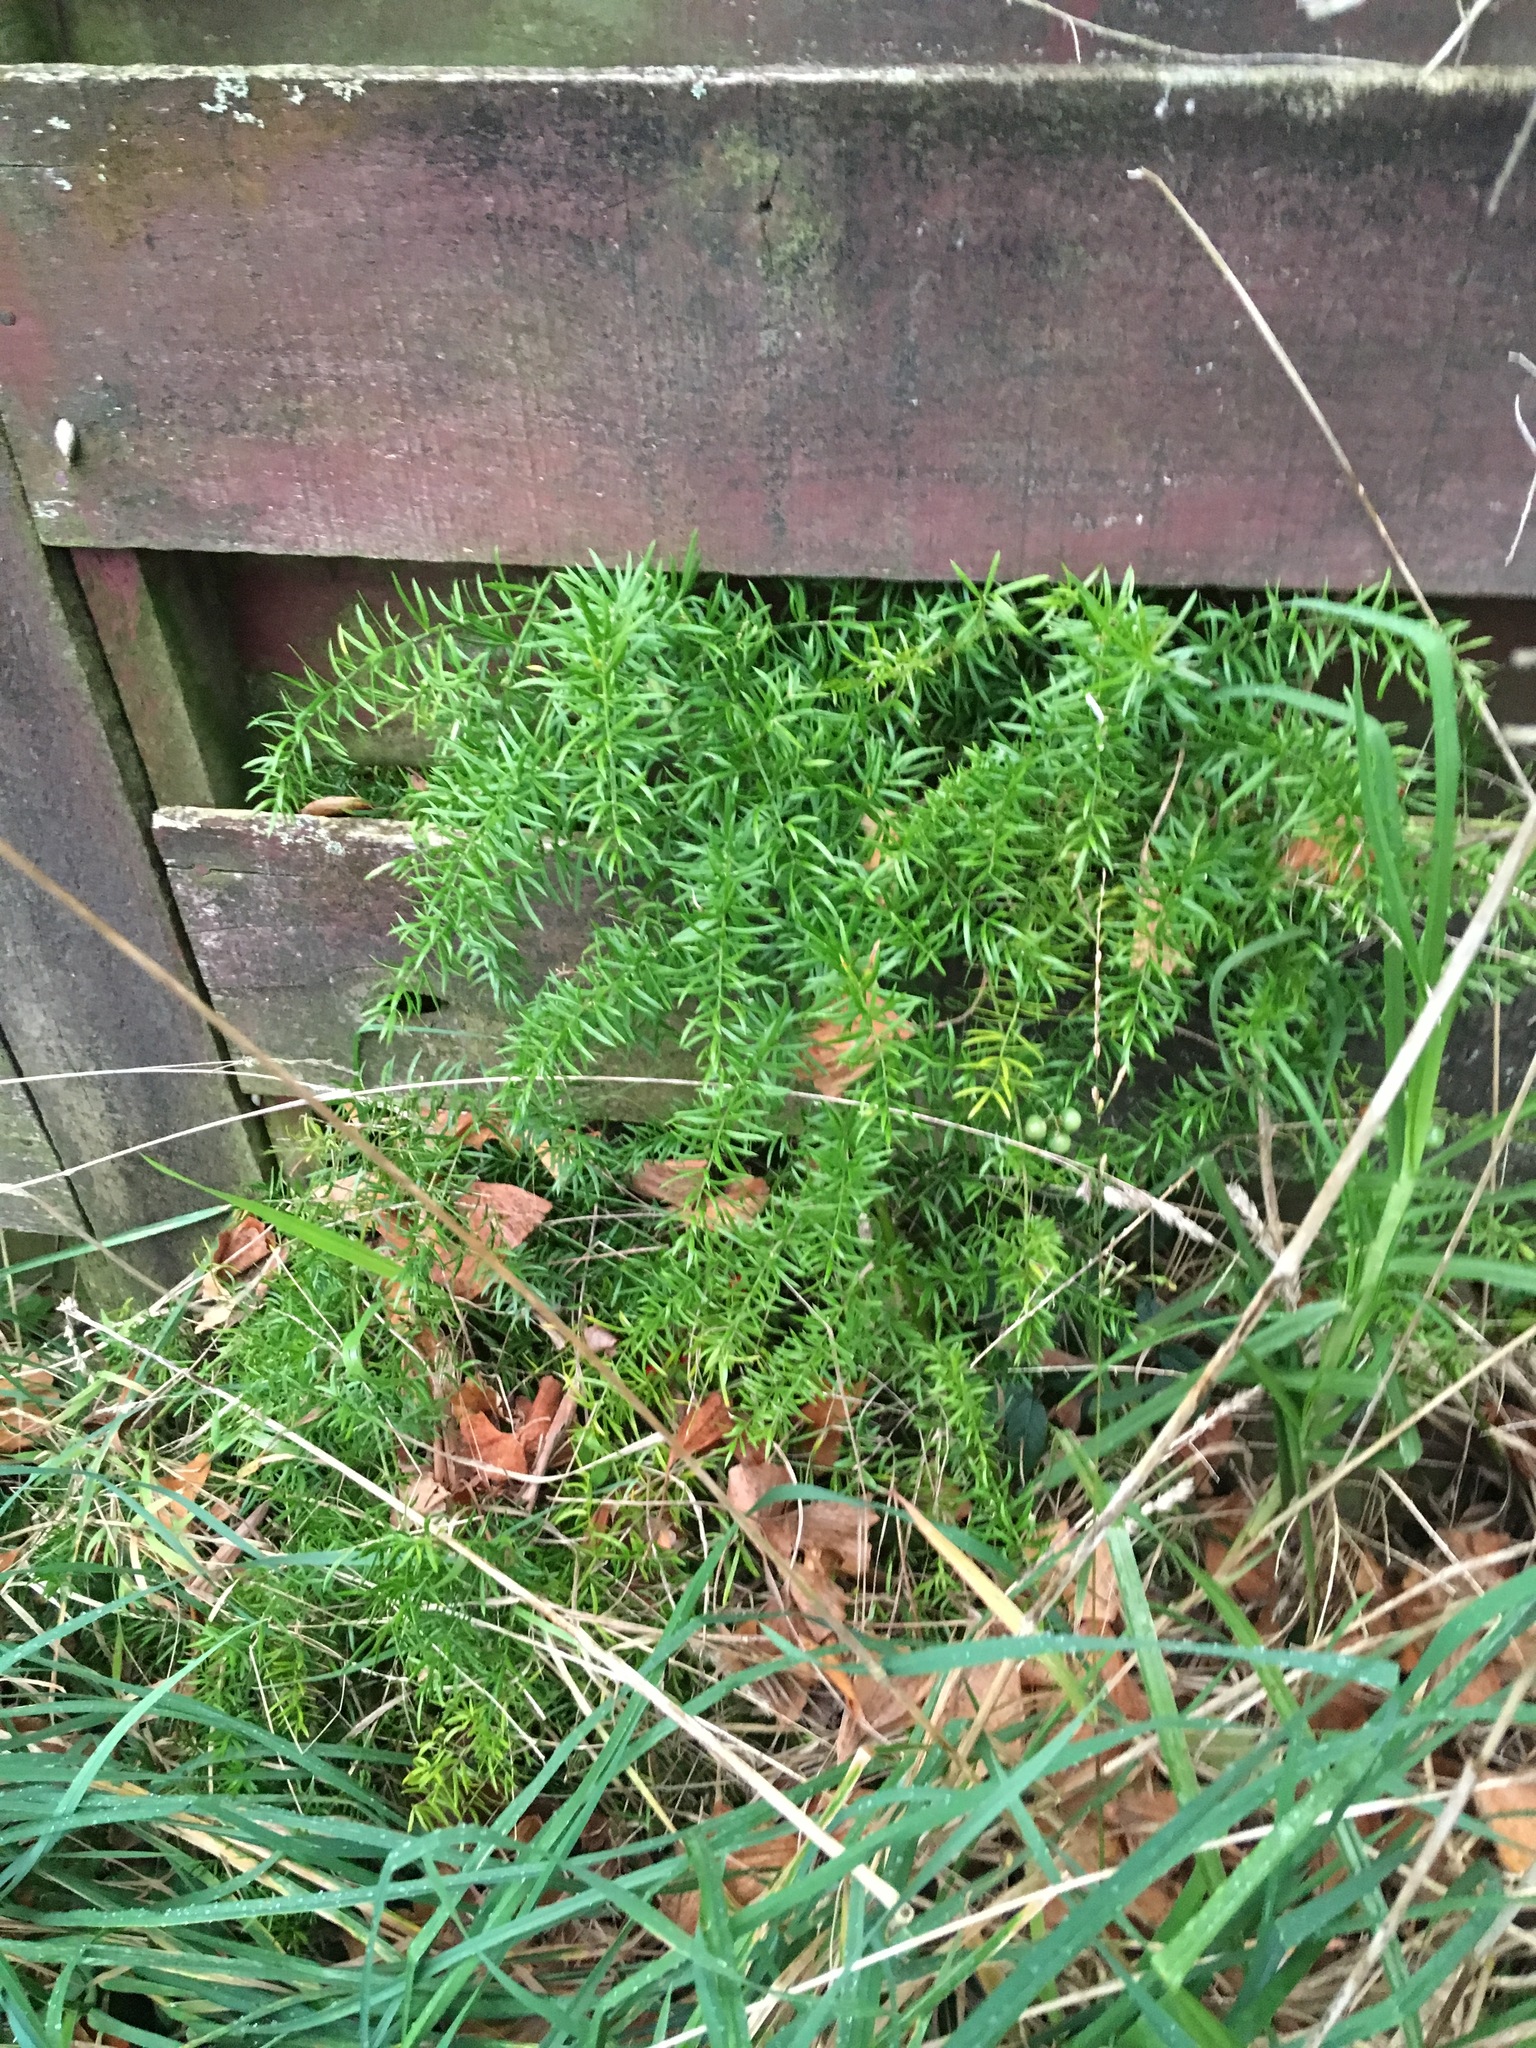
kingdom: Plantae
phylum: Tracheophyta
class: Liliopsida
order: Asparagales
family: Asparagaceae
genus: Asparagus
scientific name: Asparagus aethiopicus
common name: Sprenger's asparagus fern
